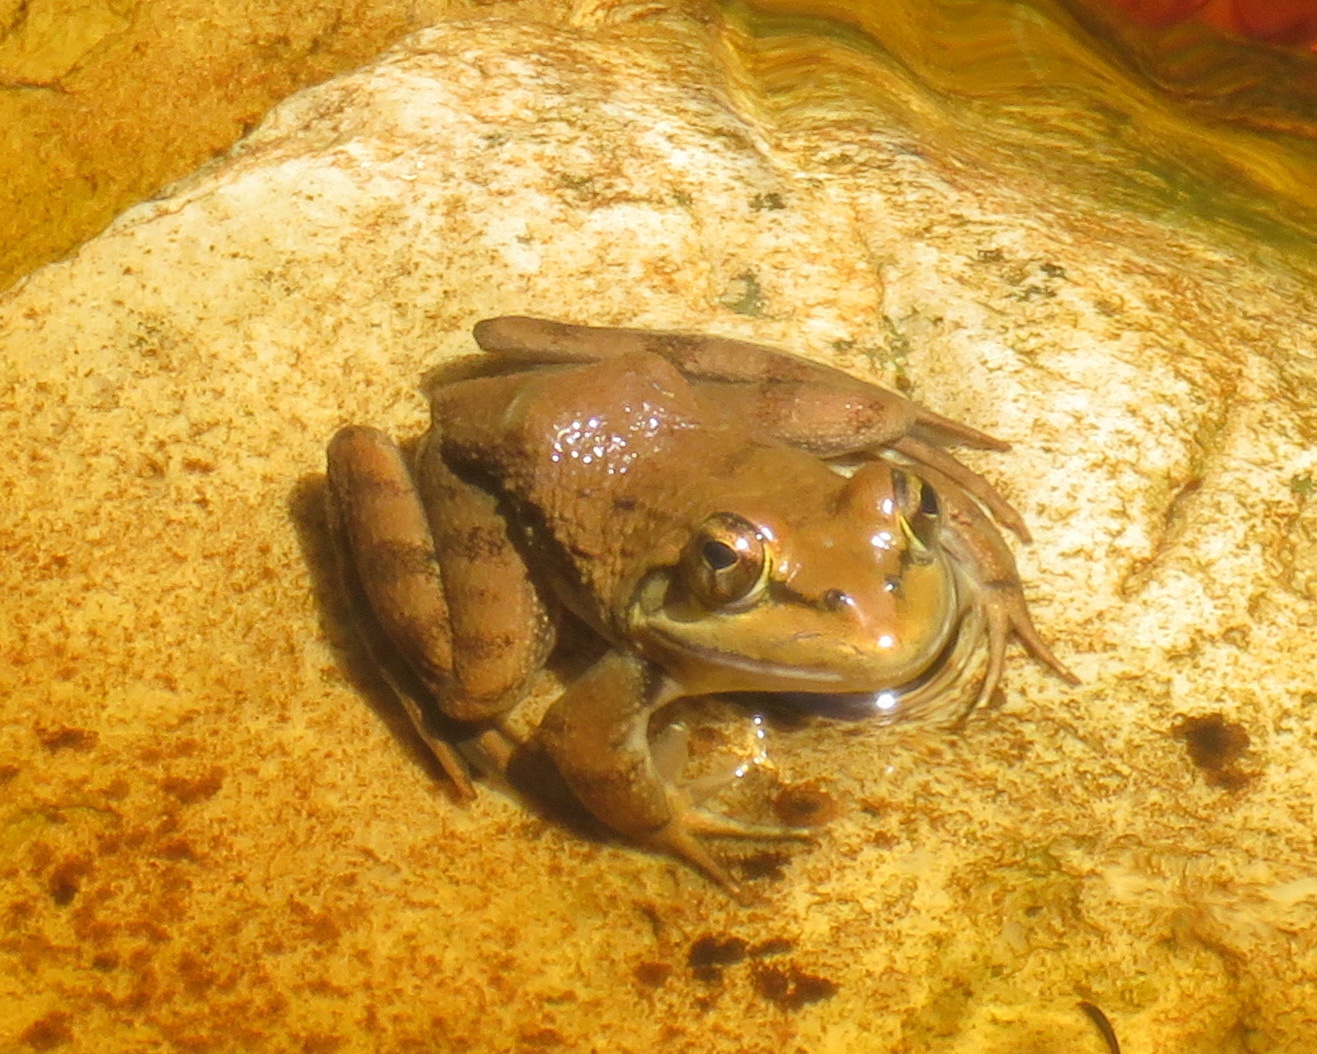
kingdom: Animalia
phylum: Chordata
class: Amphibia
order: Anura
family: Pyxicephalidae
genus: Amietia
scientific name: Amietia fuscigula
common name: Cape rana
